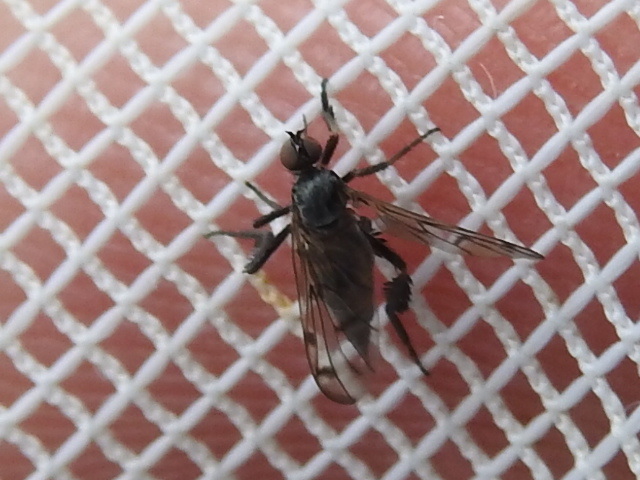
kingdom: Animalia
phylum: Arthropoda
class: Insecta
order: Diptera
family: Empididae
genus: Empis
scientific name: Empis clausa
